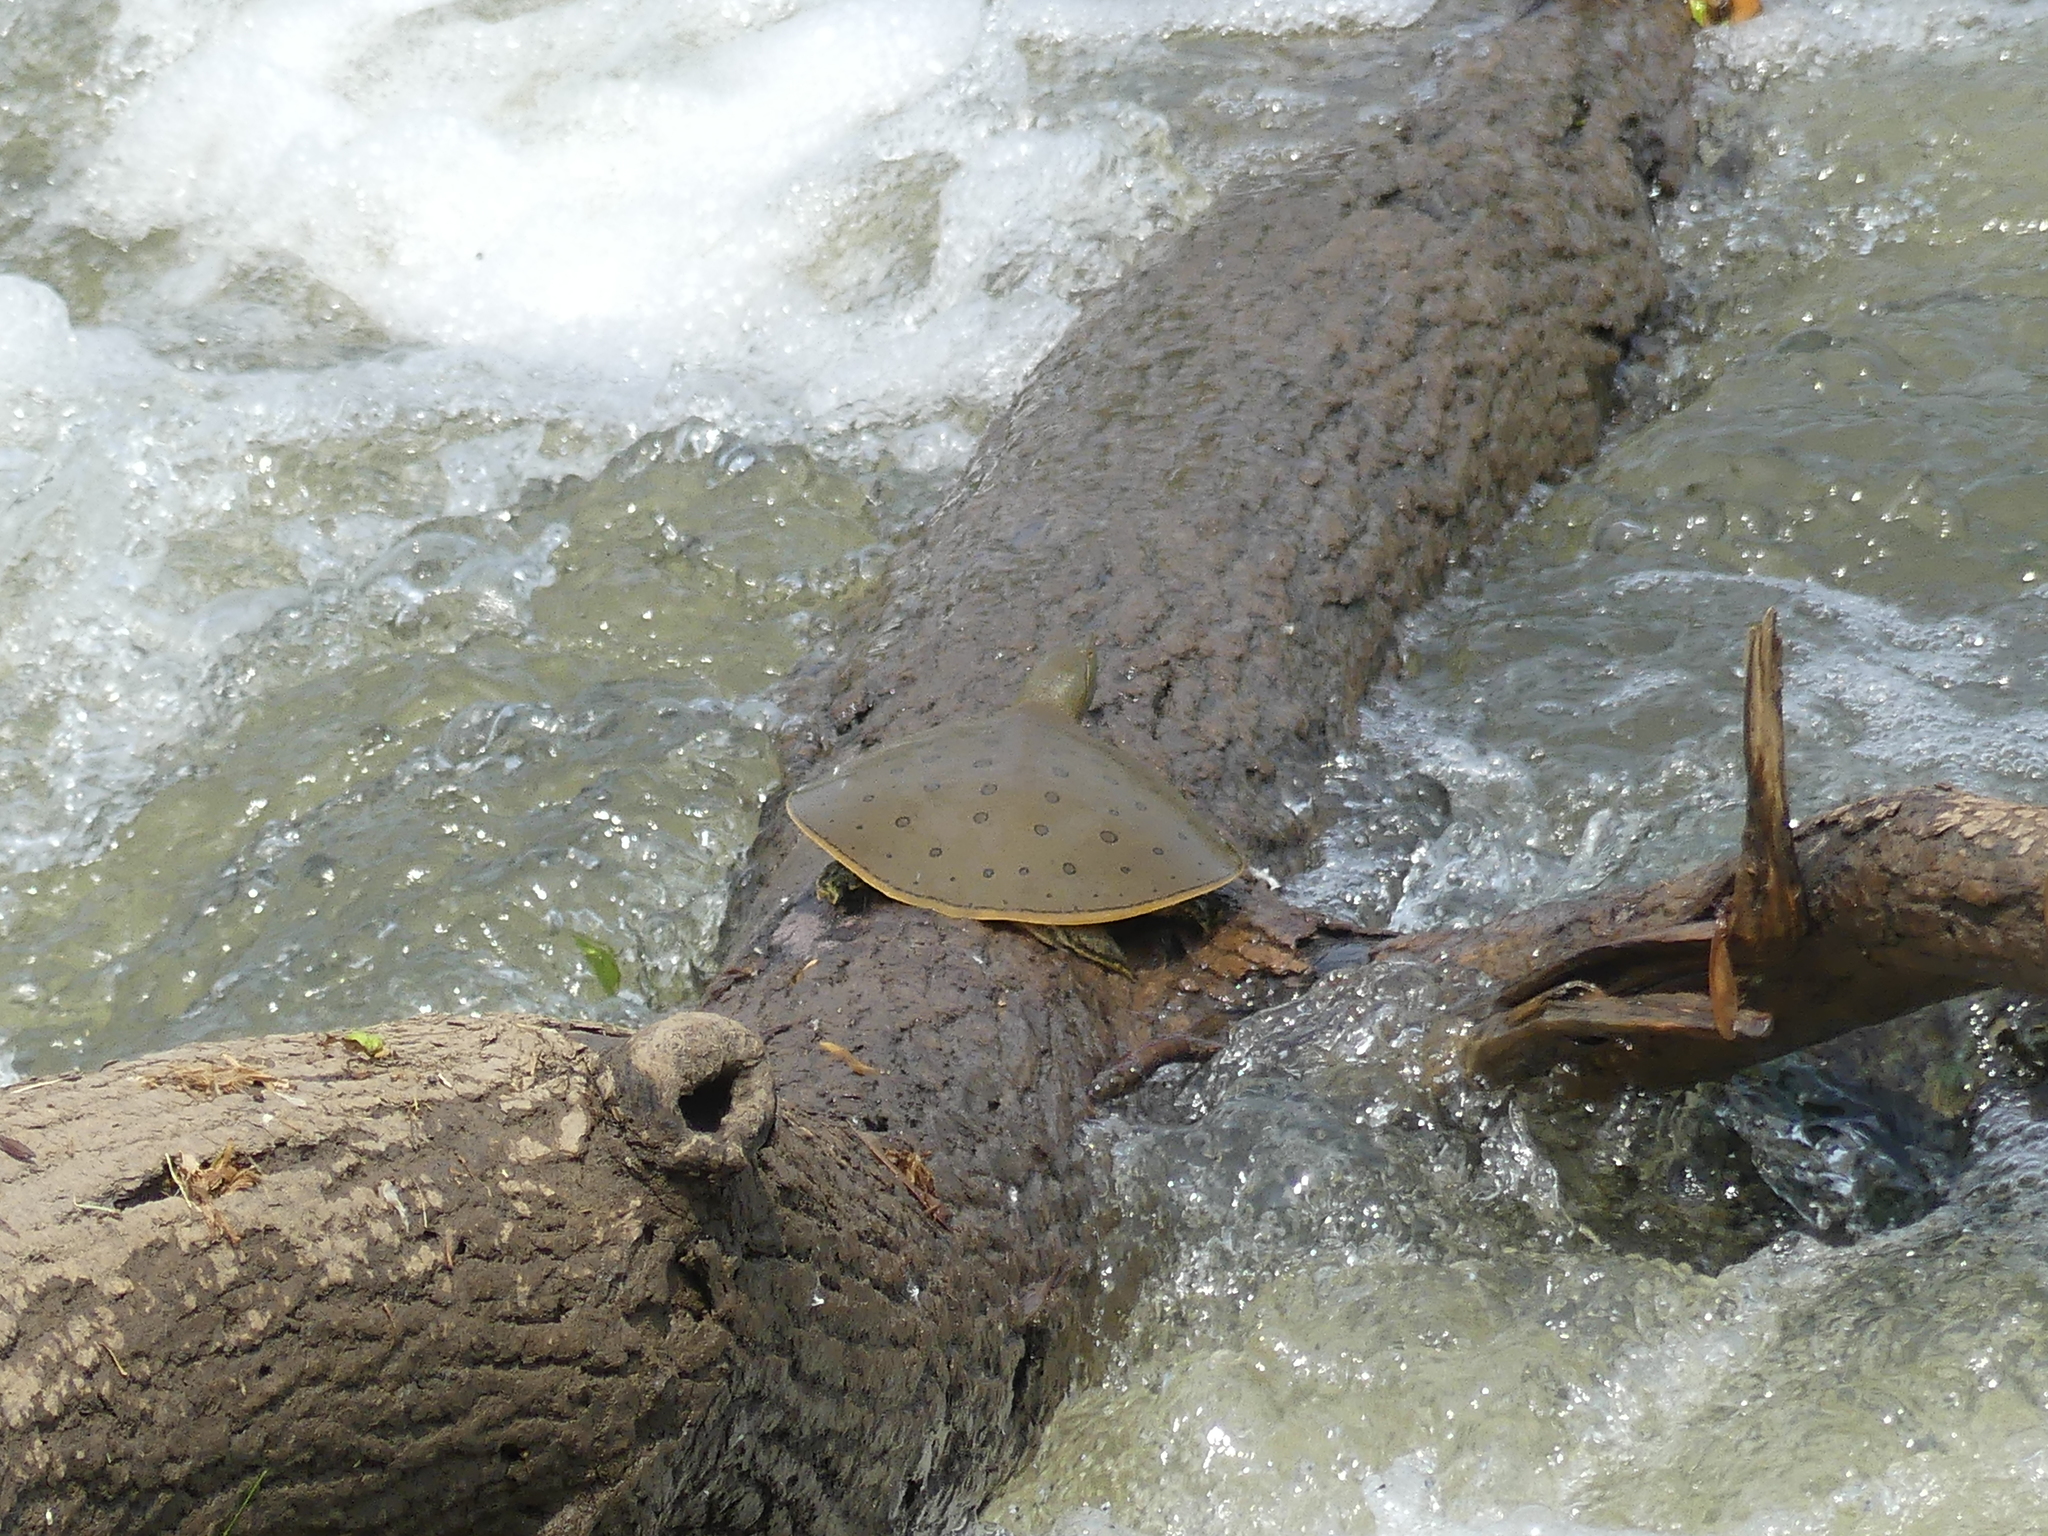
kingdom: Animalia
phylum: Chordata
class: Testudines
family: Trionychidae
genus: Apalone
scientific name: Apalone spinifera
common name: Spiny softshell turtle
